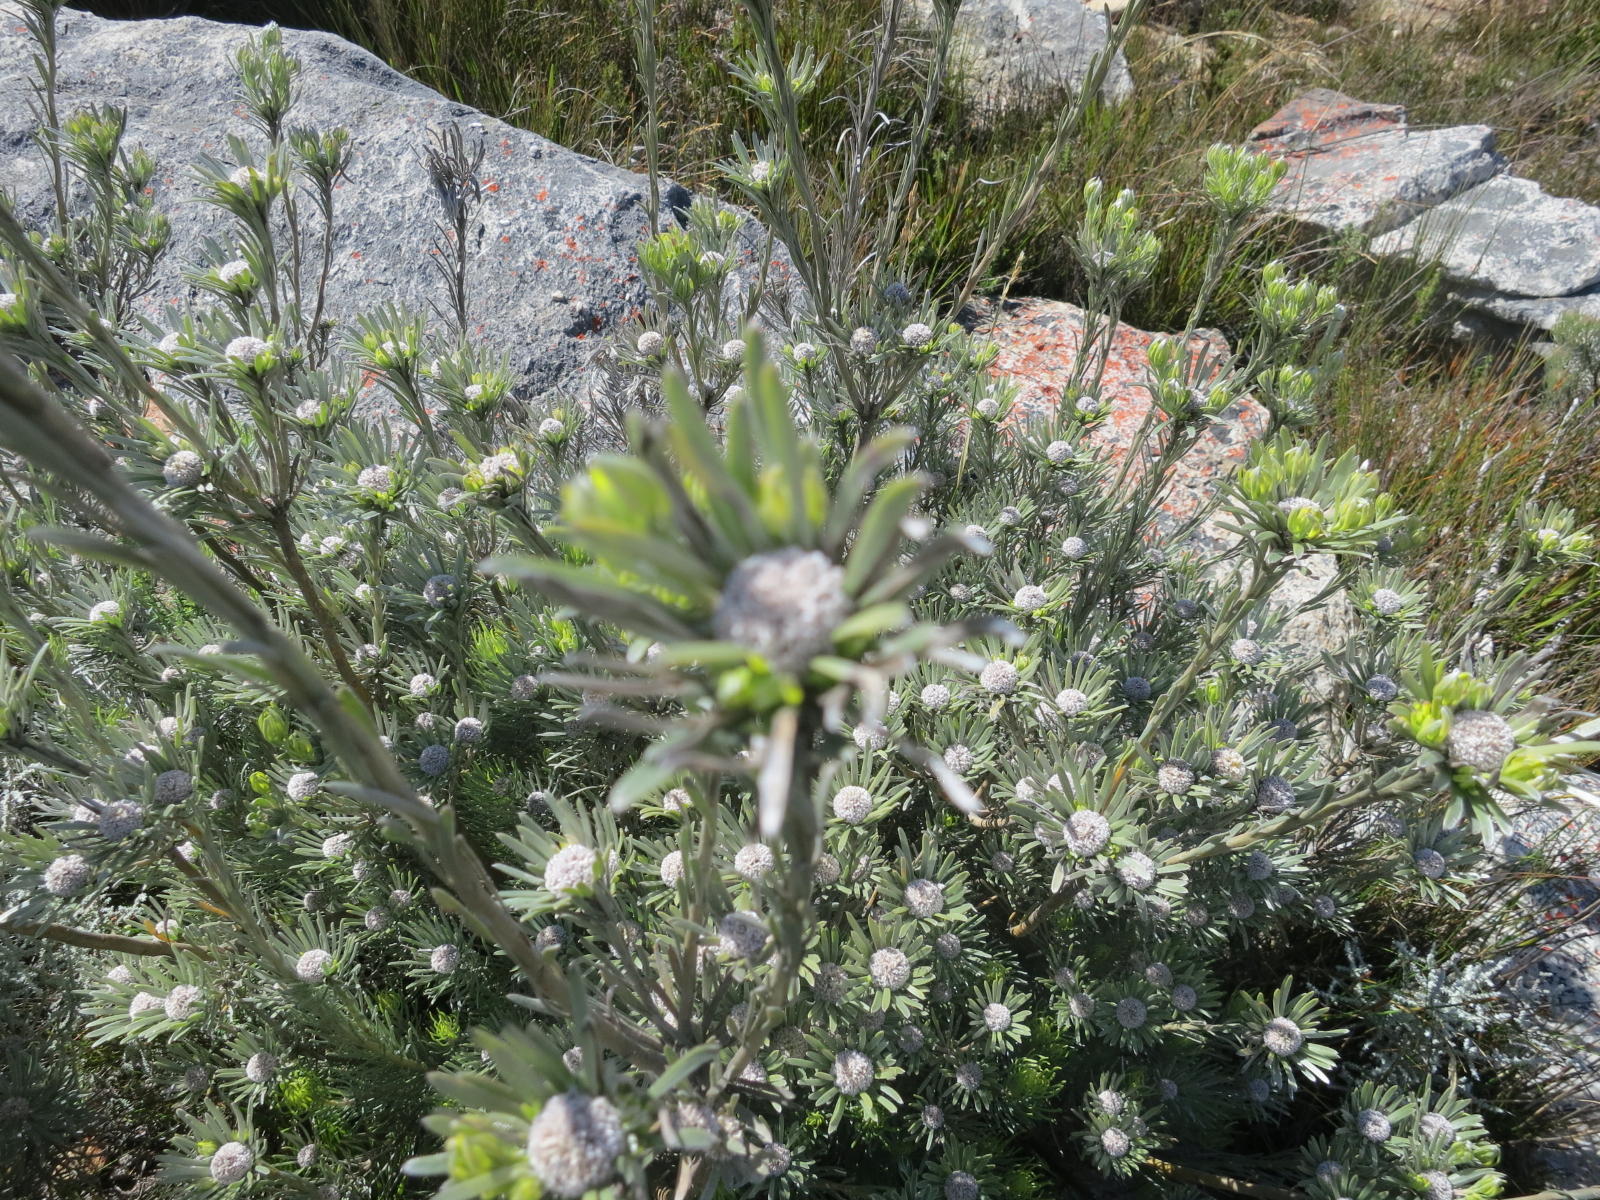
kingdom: Plantae
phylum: Tracheophyta
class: Magnoliopsida
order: Proteales
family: Proteaceae
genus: Leucadendron
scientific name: Leucadendron album
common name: Linear-leaf conebush
